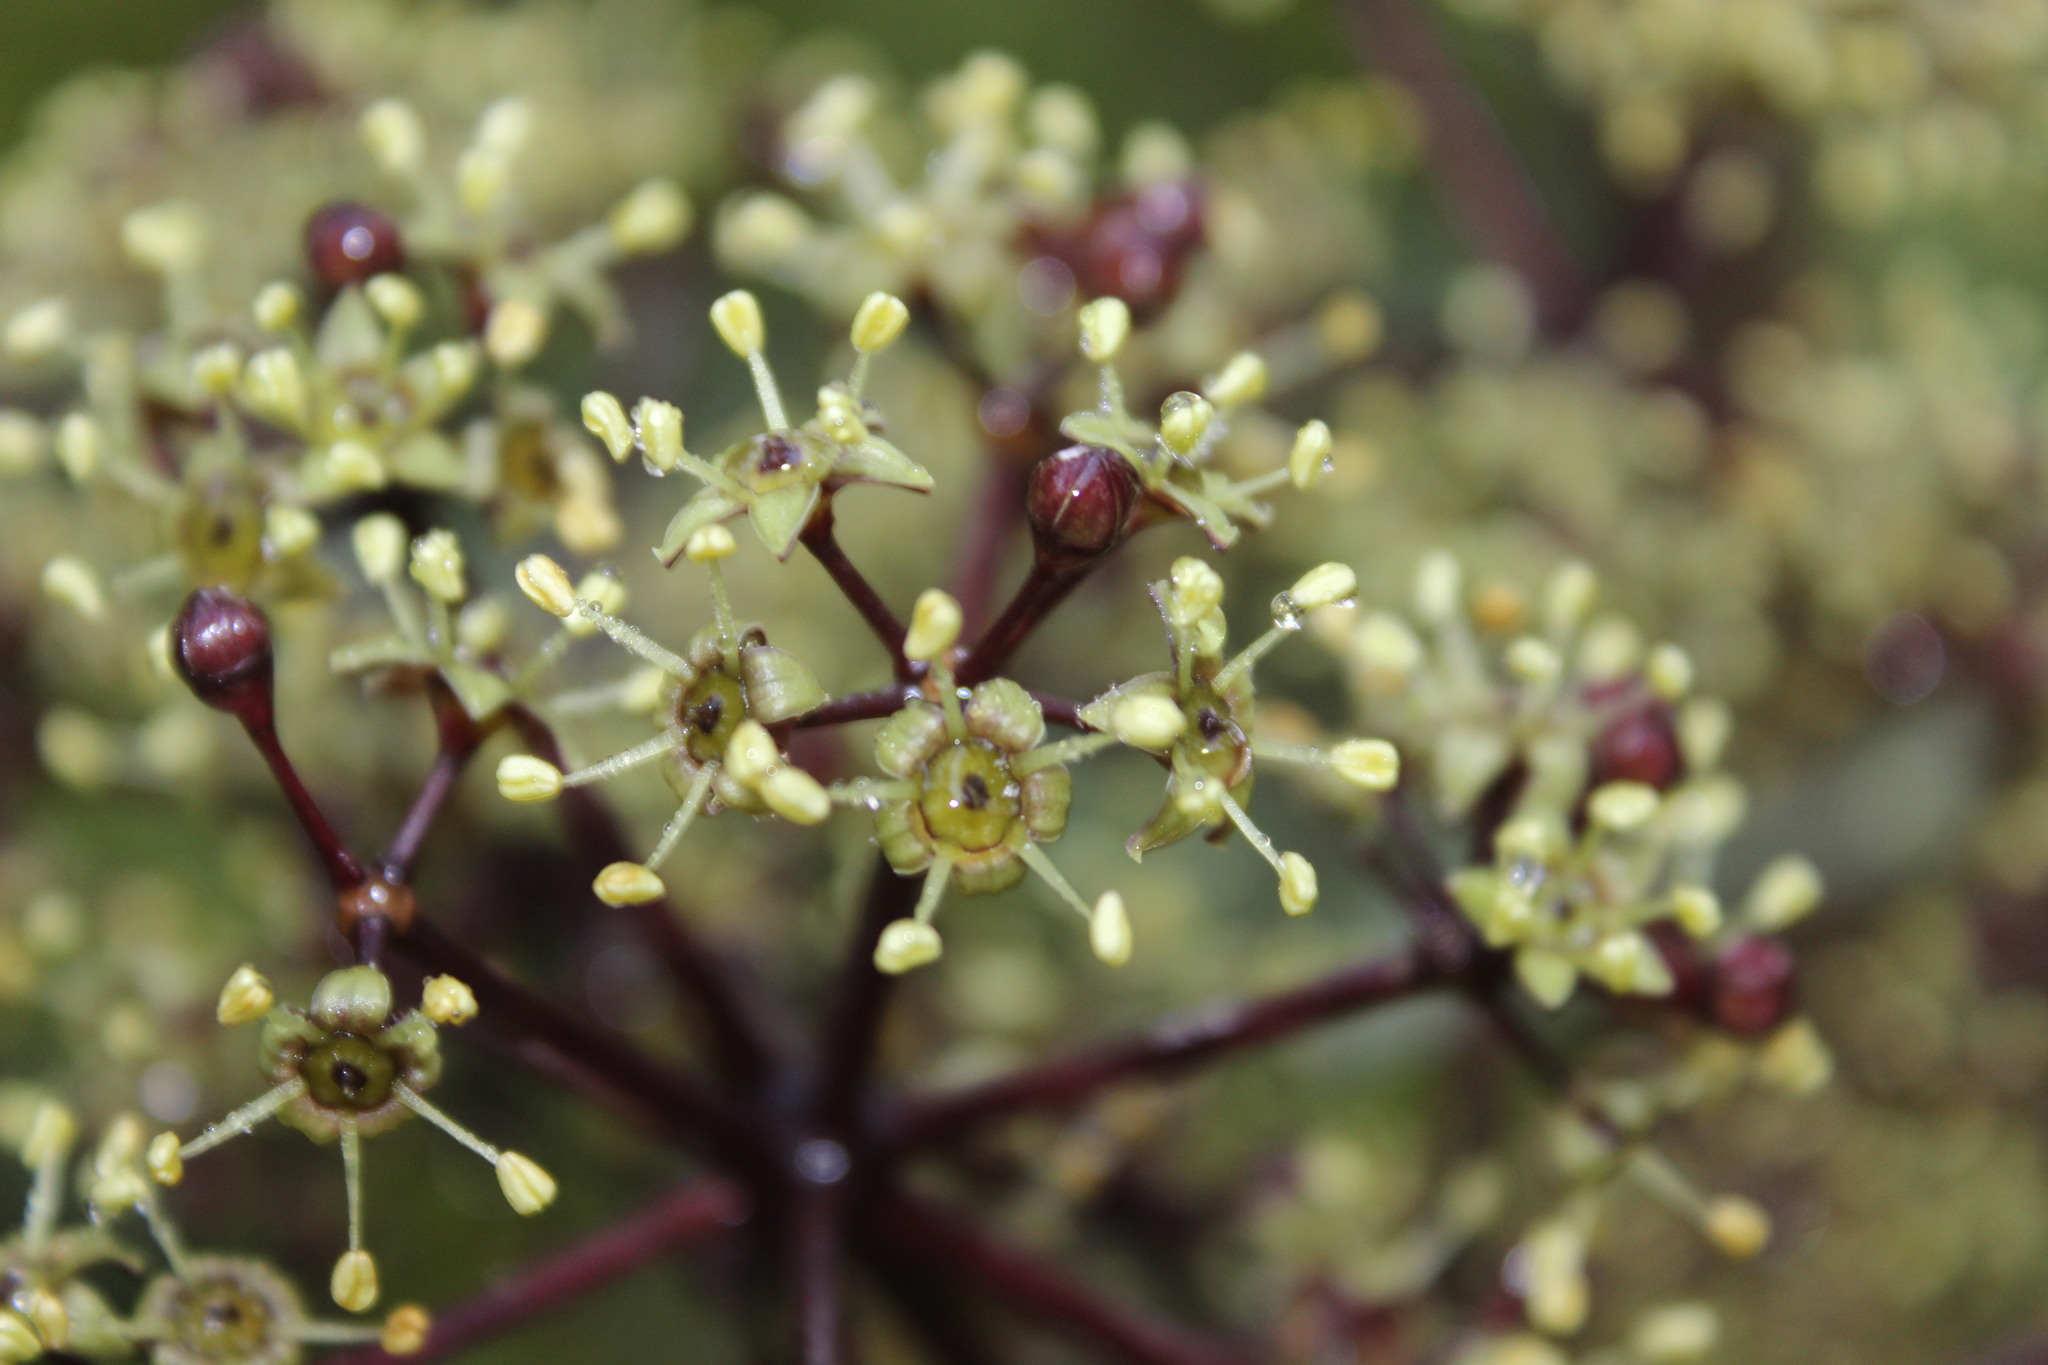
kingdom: Plantae
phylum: Tracheophyta
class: Magnoliopsida
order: Apiales
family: Araliaceae
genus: Neopanax
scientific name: Neopanax arboreus
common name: Five-fingers
